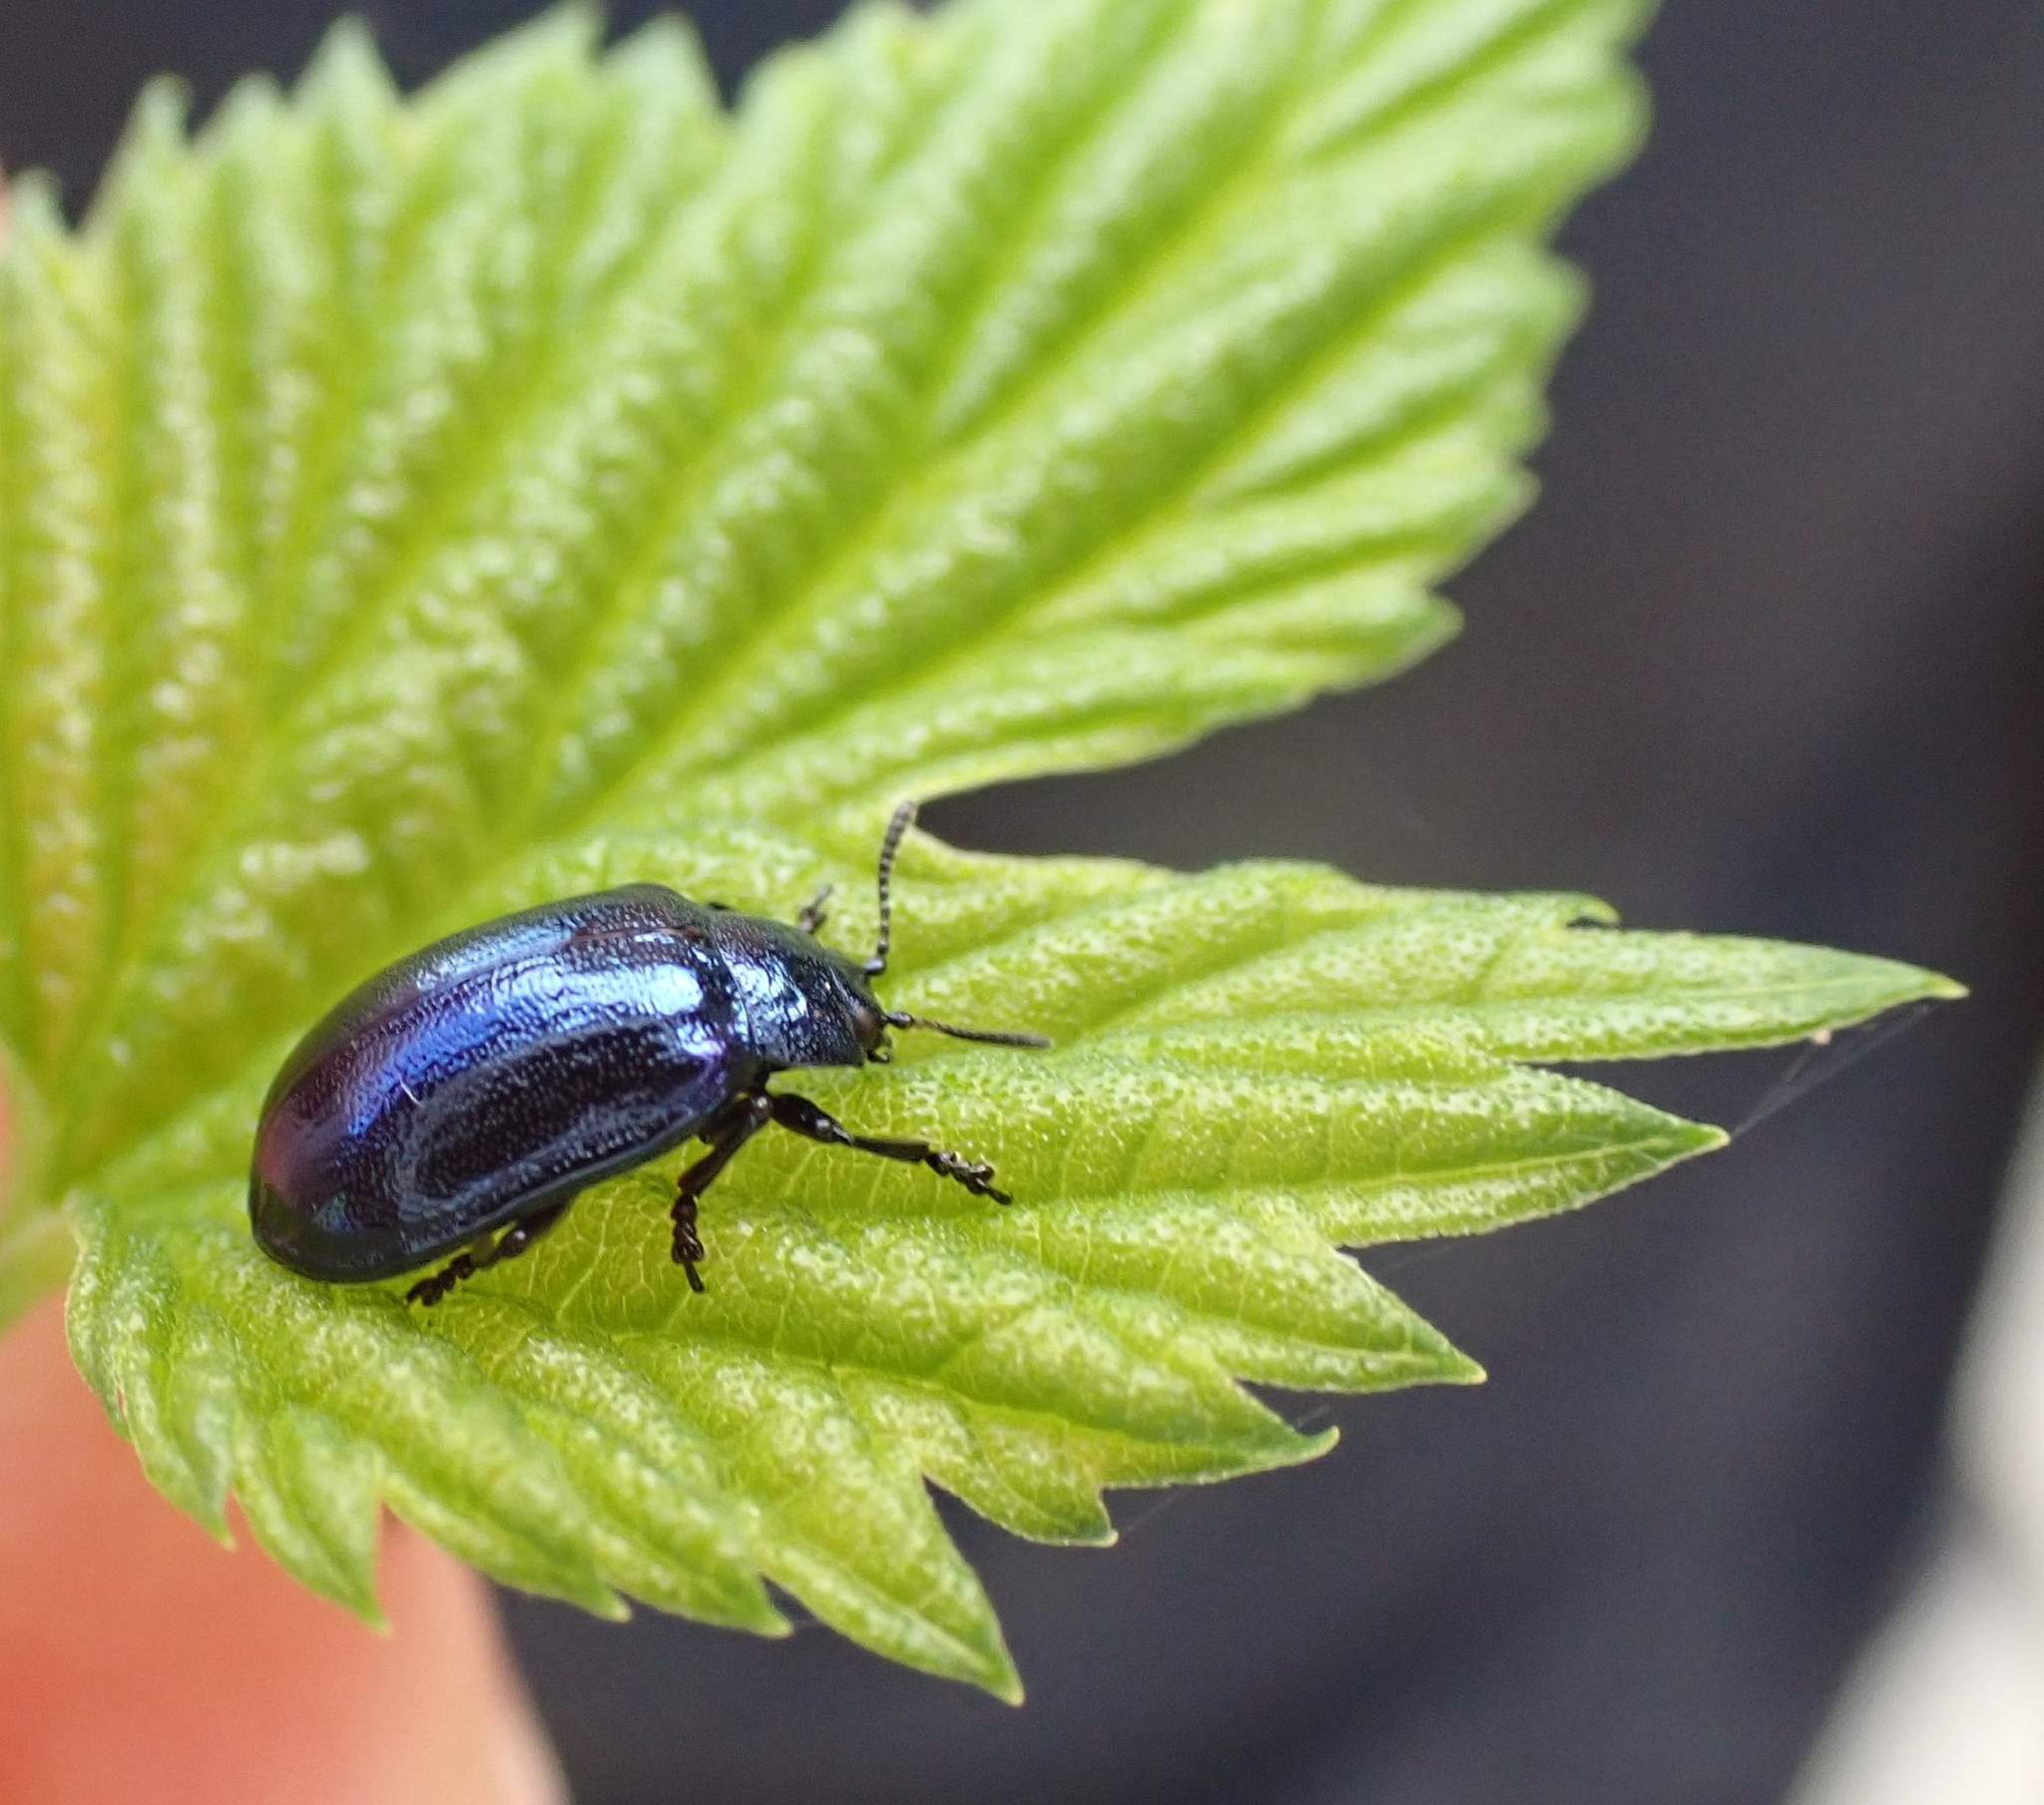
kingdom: Animalia
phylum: Arthropoda
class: Insecta
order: Coleoptera
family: Chrysomelidae
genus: Plagiosterna
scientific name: Plagiosterna aenea
